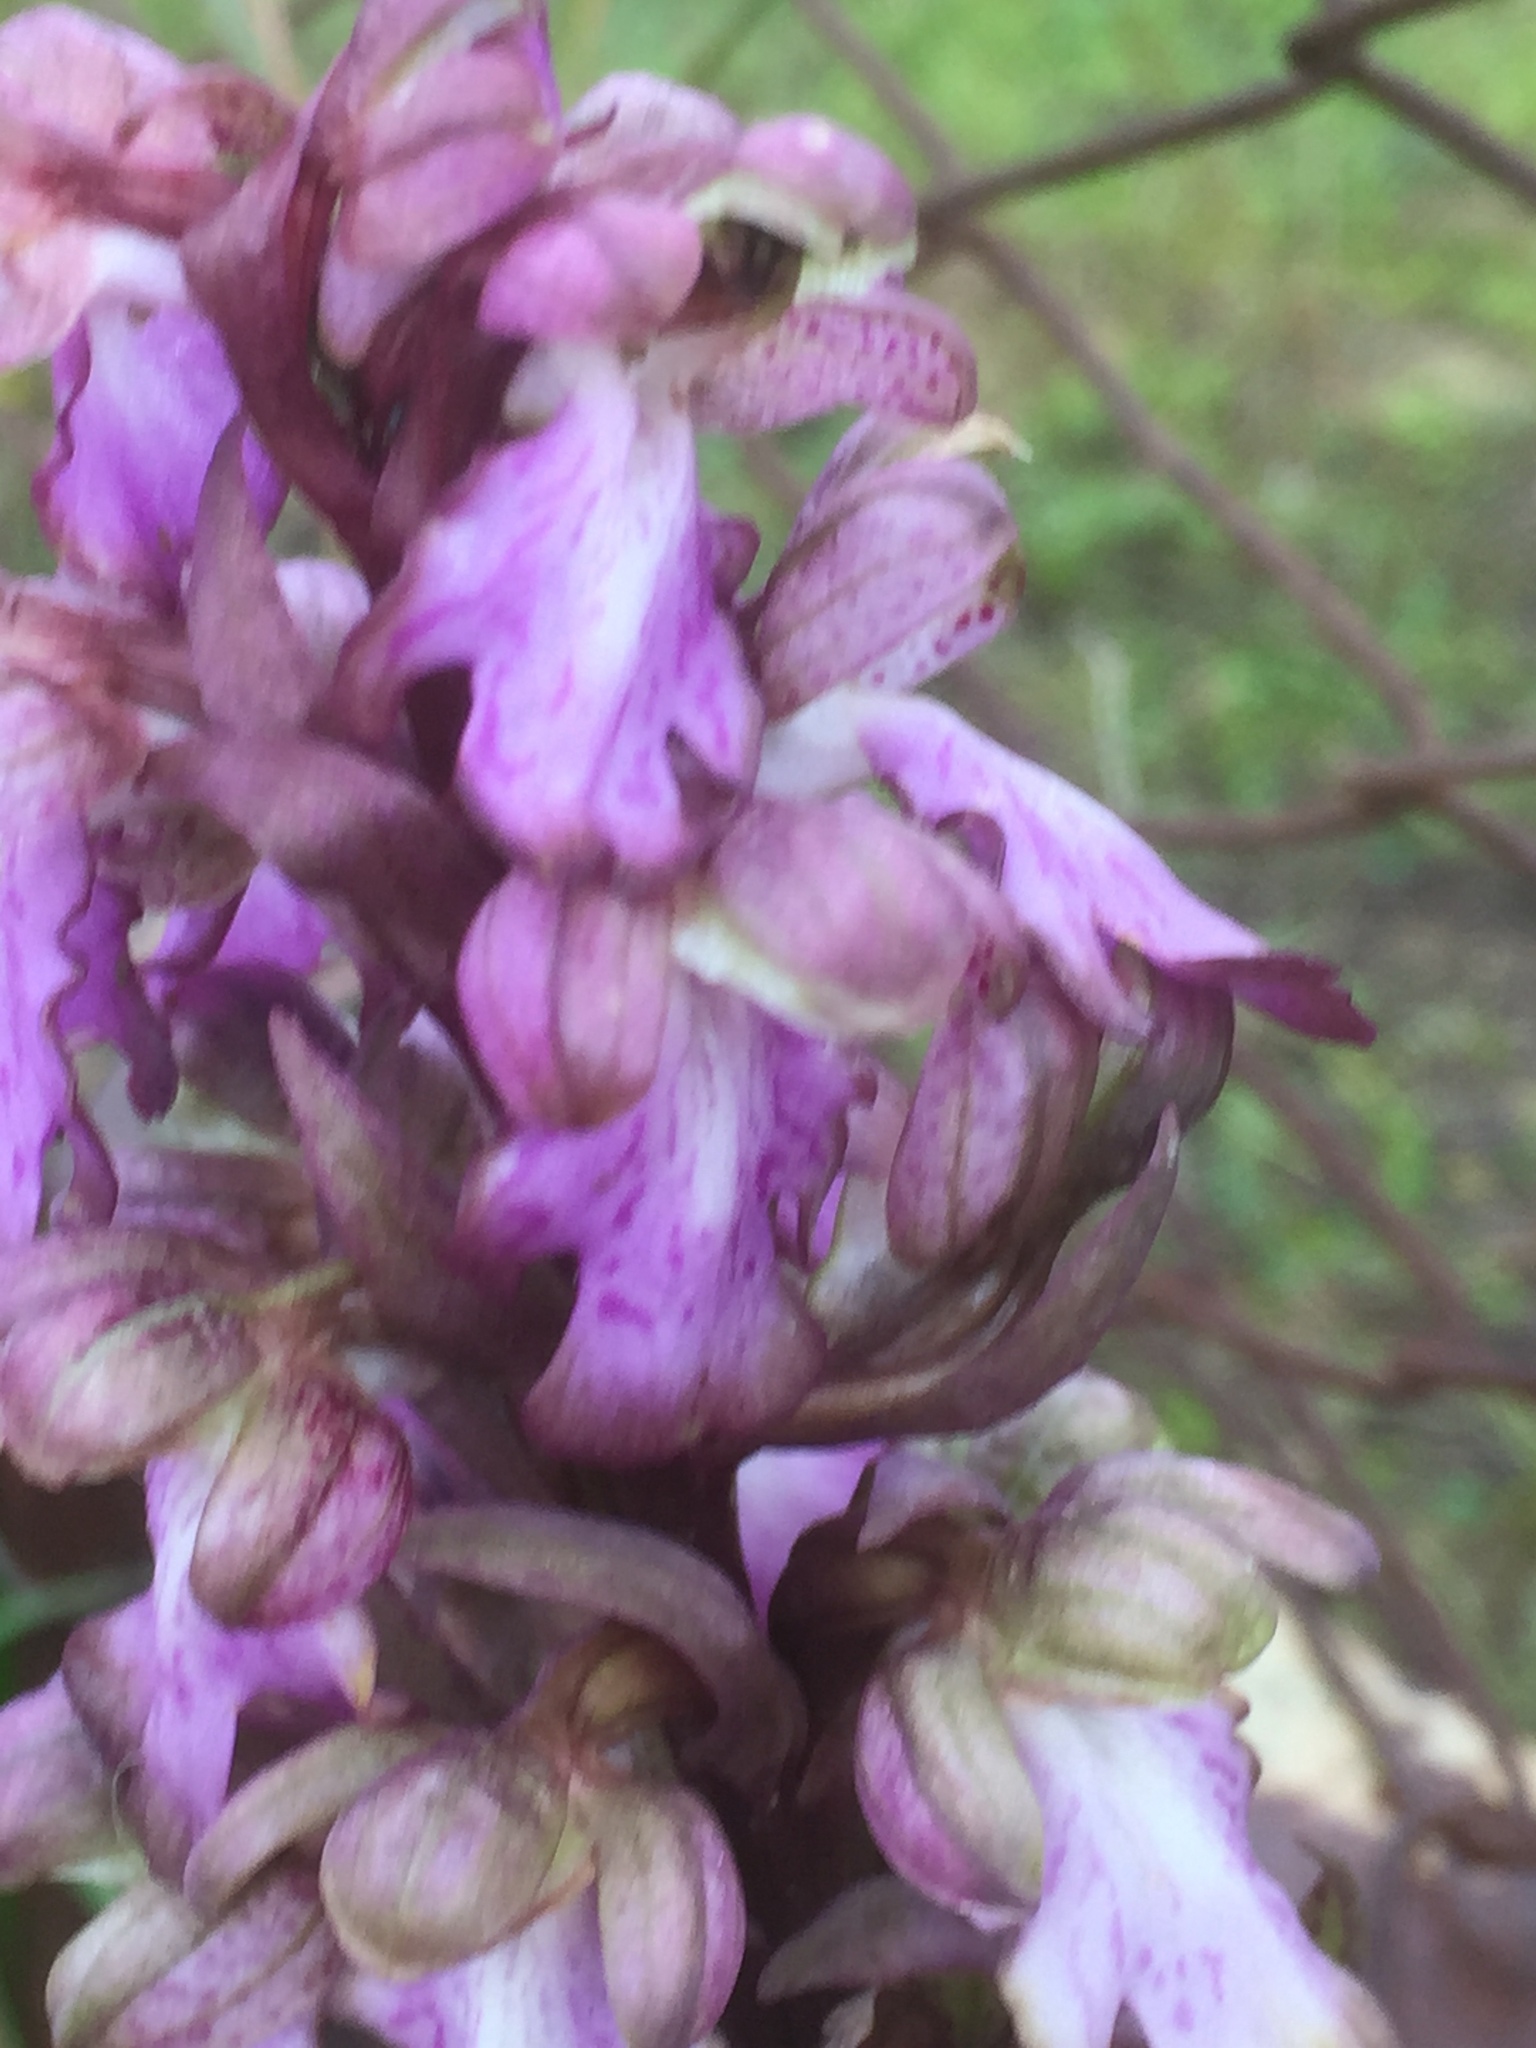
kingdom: Plantae
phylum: Tracheophyta
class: Liliopsida
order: Asparagales
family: Orchidaceae
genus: Himantoglossum
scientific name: Himantoglossum robertianum
